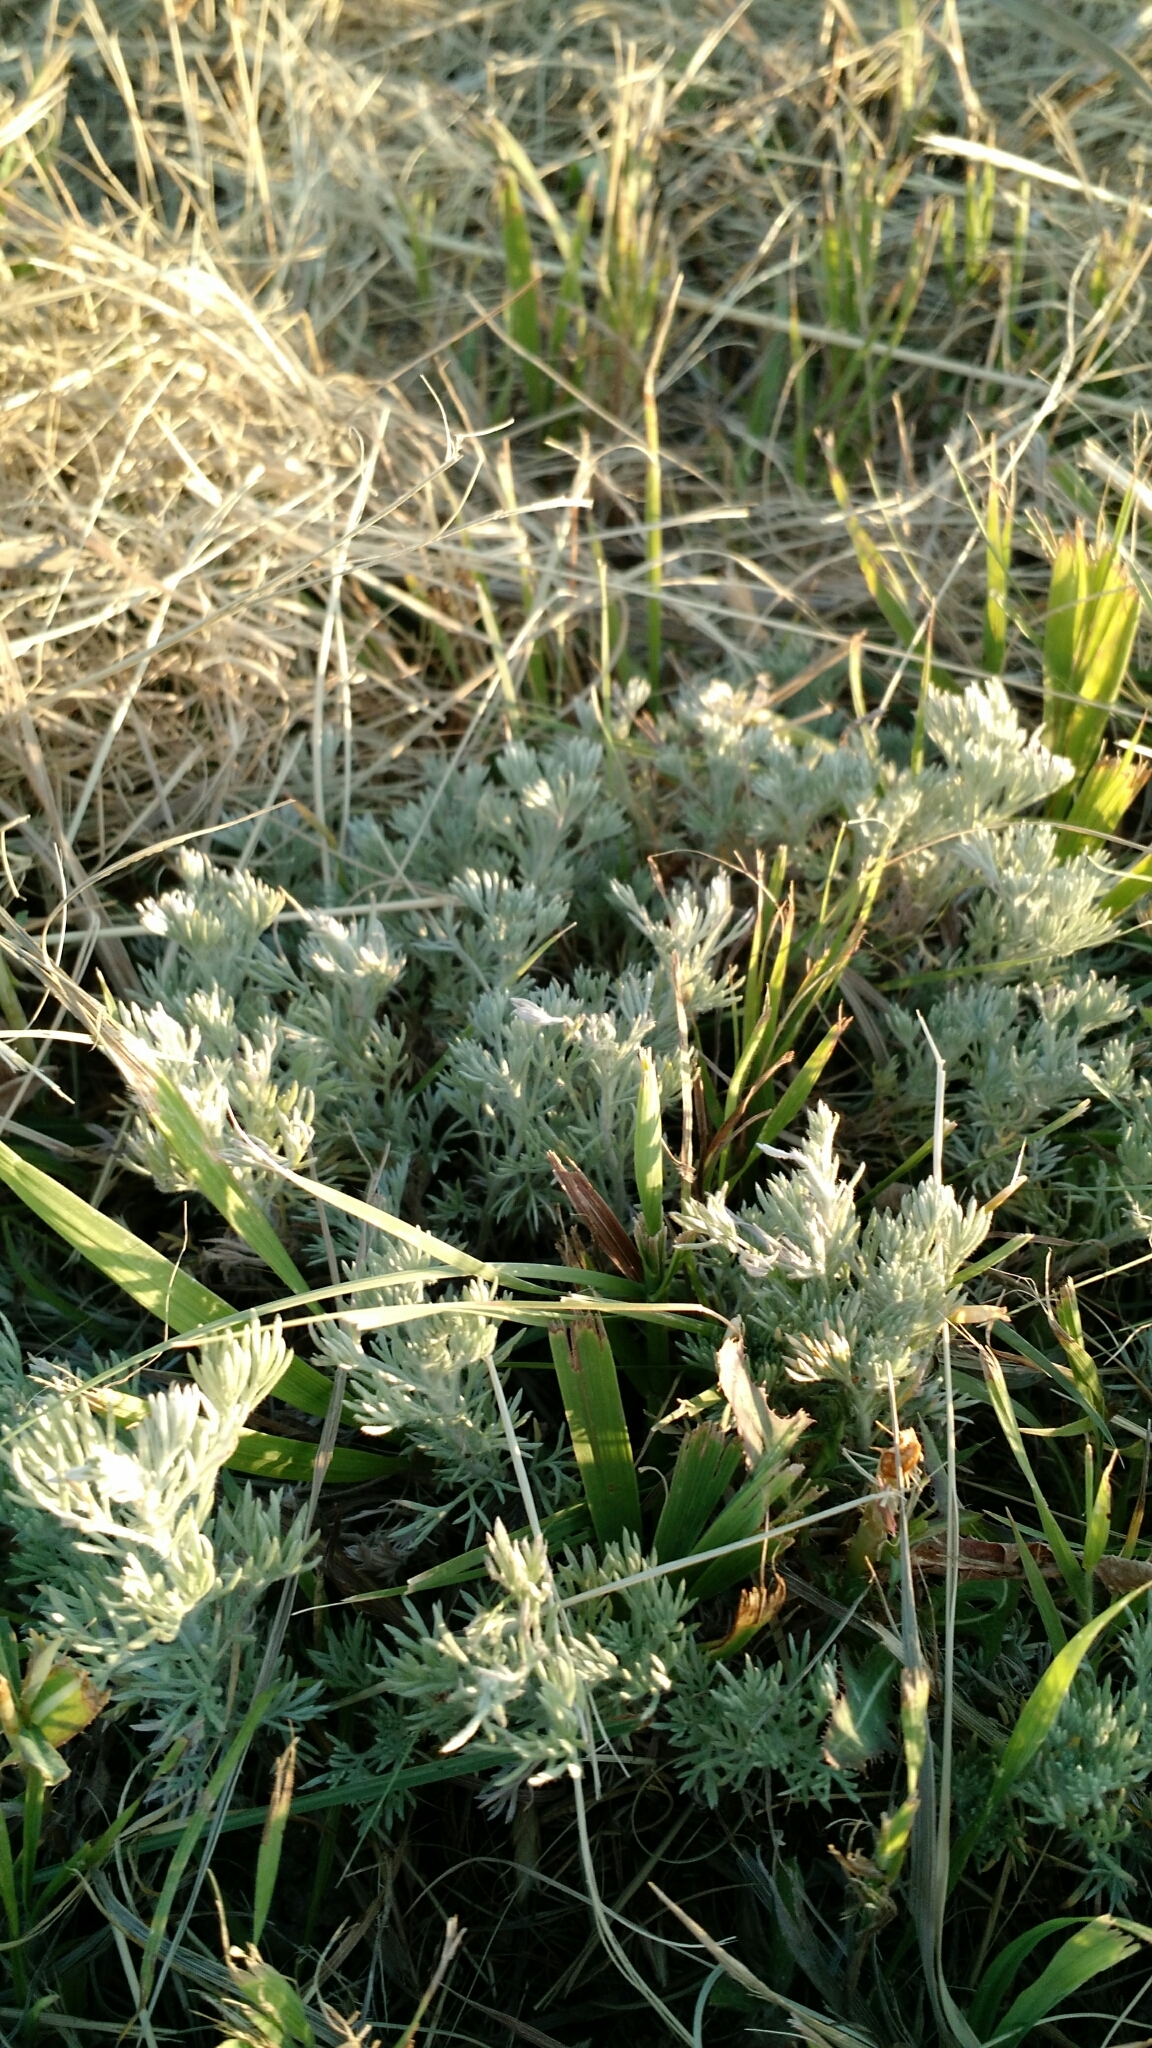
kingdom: Plantae
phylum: Tracheophyta
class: Magnoliopsida
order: Asterales
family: Asteraceae
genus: Artemisia
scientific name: Artemisia frigida
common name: Prairie sagewort
